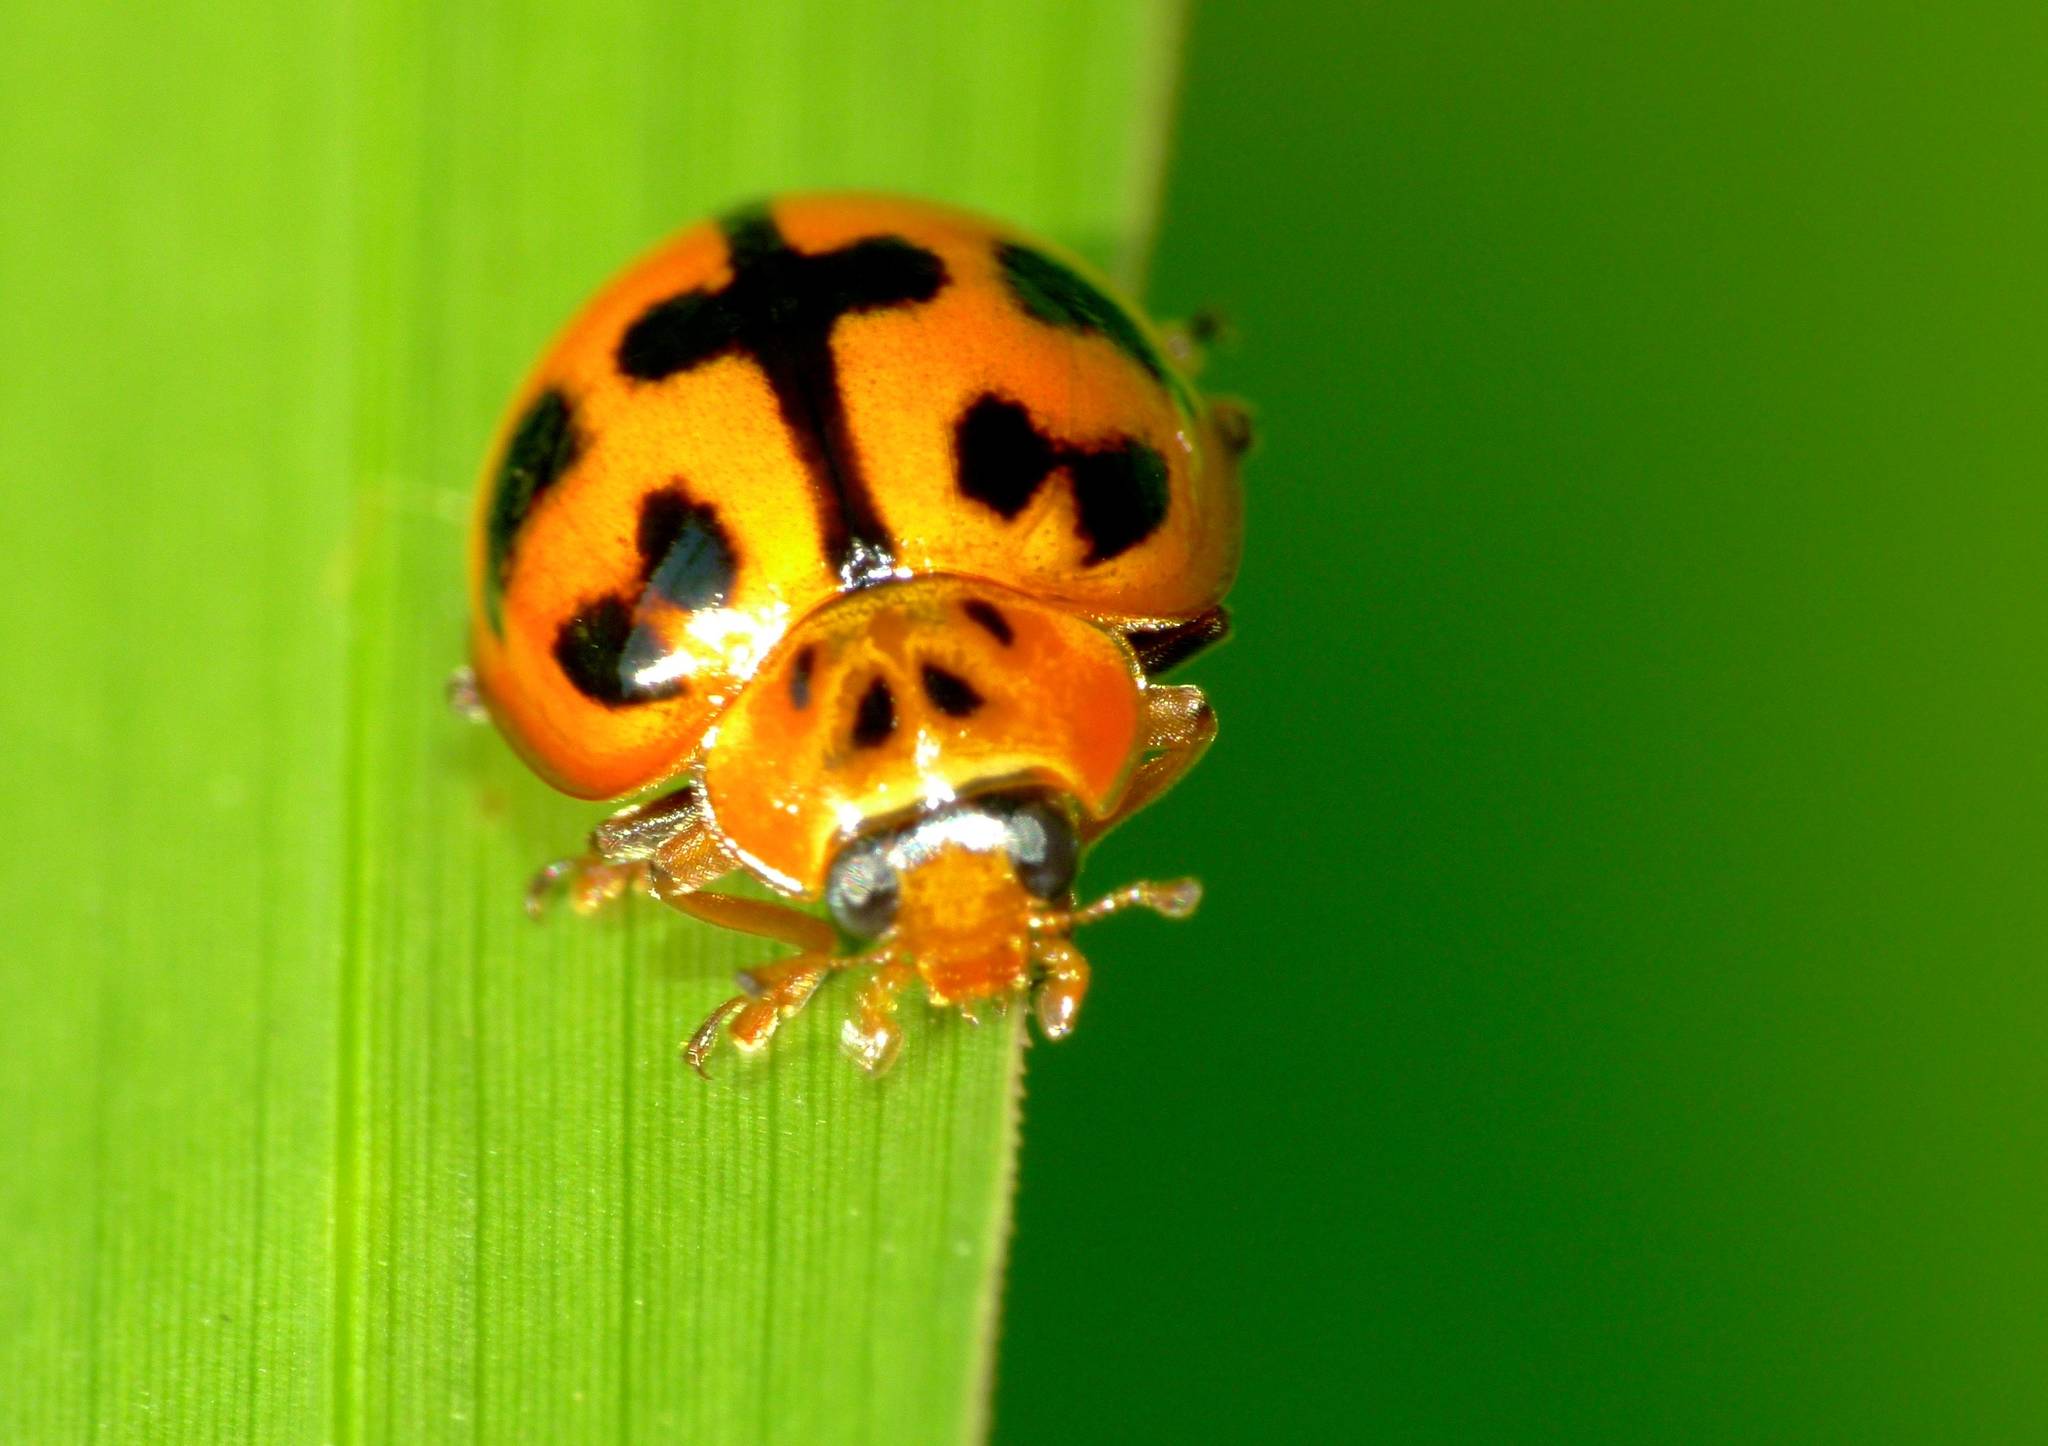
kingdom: Animalia
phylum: Arthropoda
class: Insecta
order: Coleoptera
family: Coccinellidae
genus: Harmonia
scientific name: Harmonia octomaculata
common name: Lady beetle
